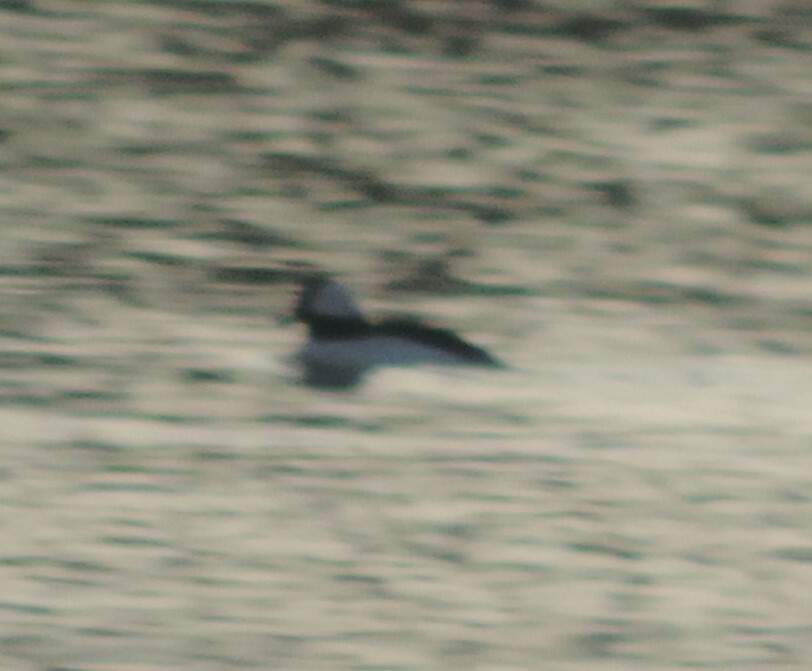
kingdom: Animalia
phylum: Chordata
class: Aves
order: Anseriformes
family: Anatidae
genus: Bucephala
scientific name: Bucephala albeola
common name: Bufflehead
